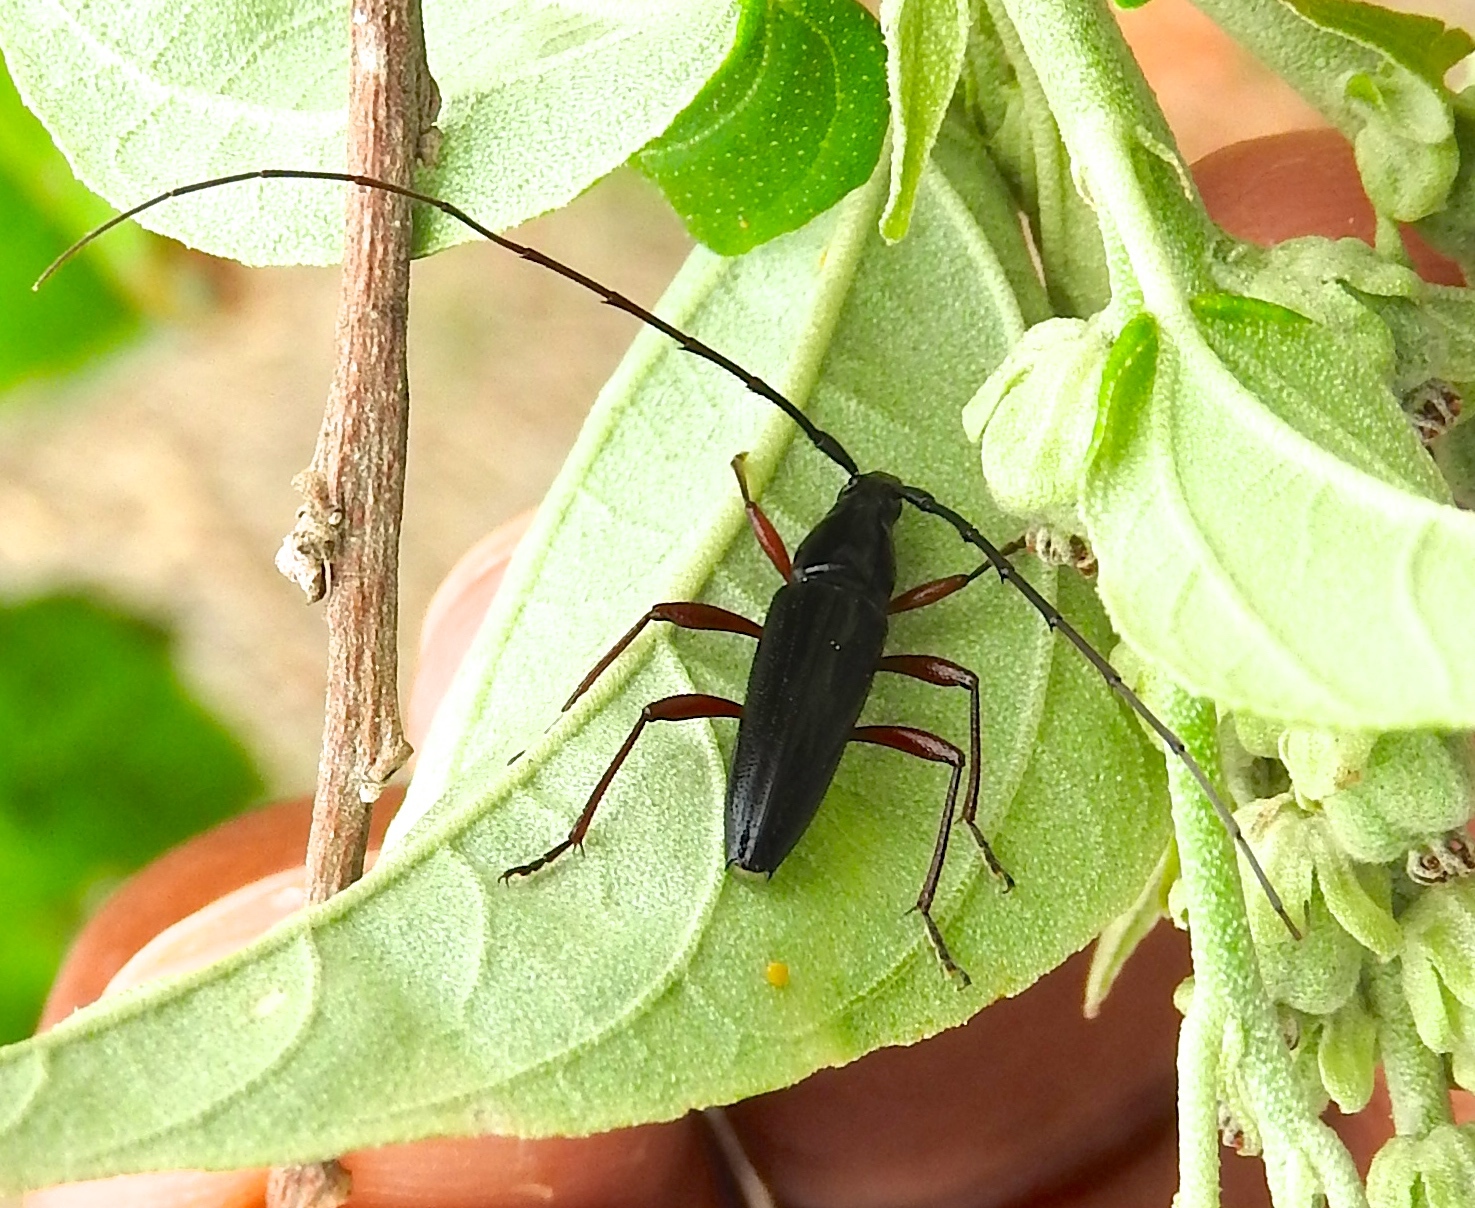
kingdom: Animalia
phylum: Arthropoda
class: Insecta
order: Coleoptera
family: Cerambycidae
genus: Stenosphenus
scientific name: Stenosphenus
